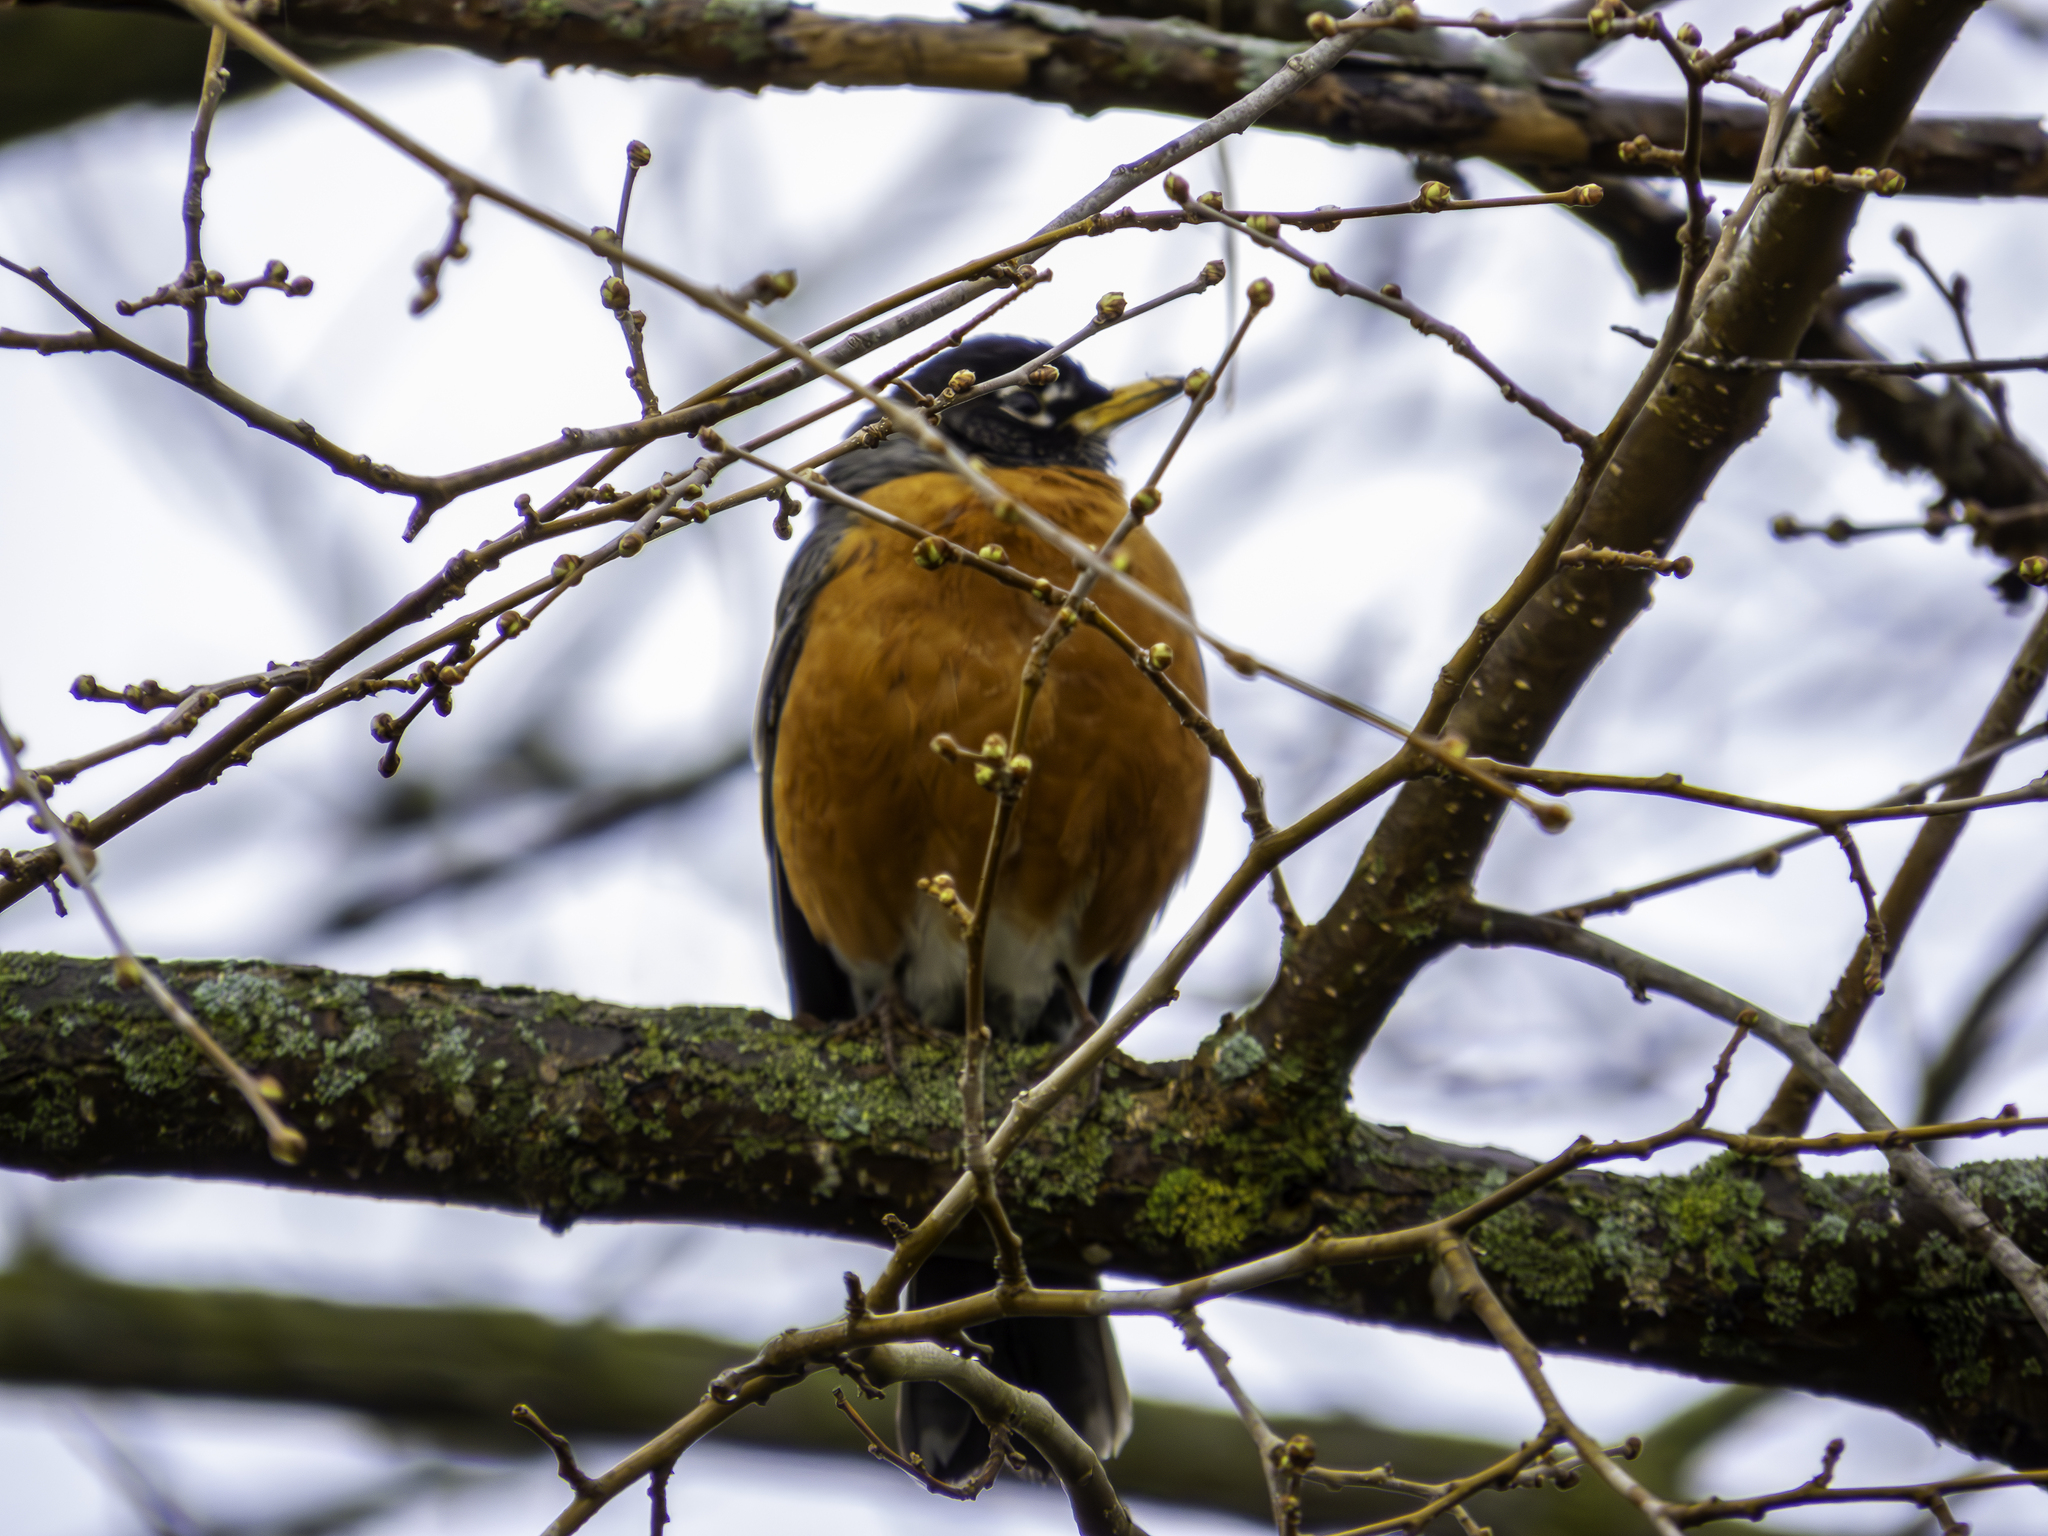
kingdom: Animalia
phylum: Chordata
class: Aves
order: Passeriformes
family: Turdidae
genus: Turdus
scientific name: Turdus migratorius
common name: American robin
